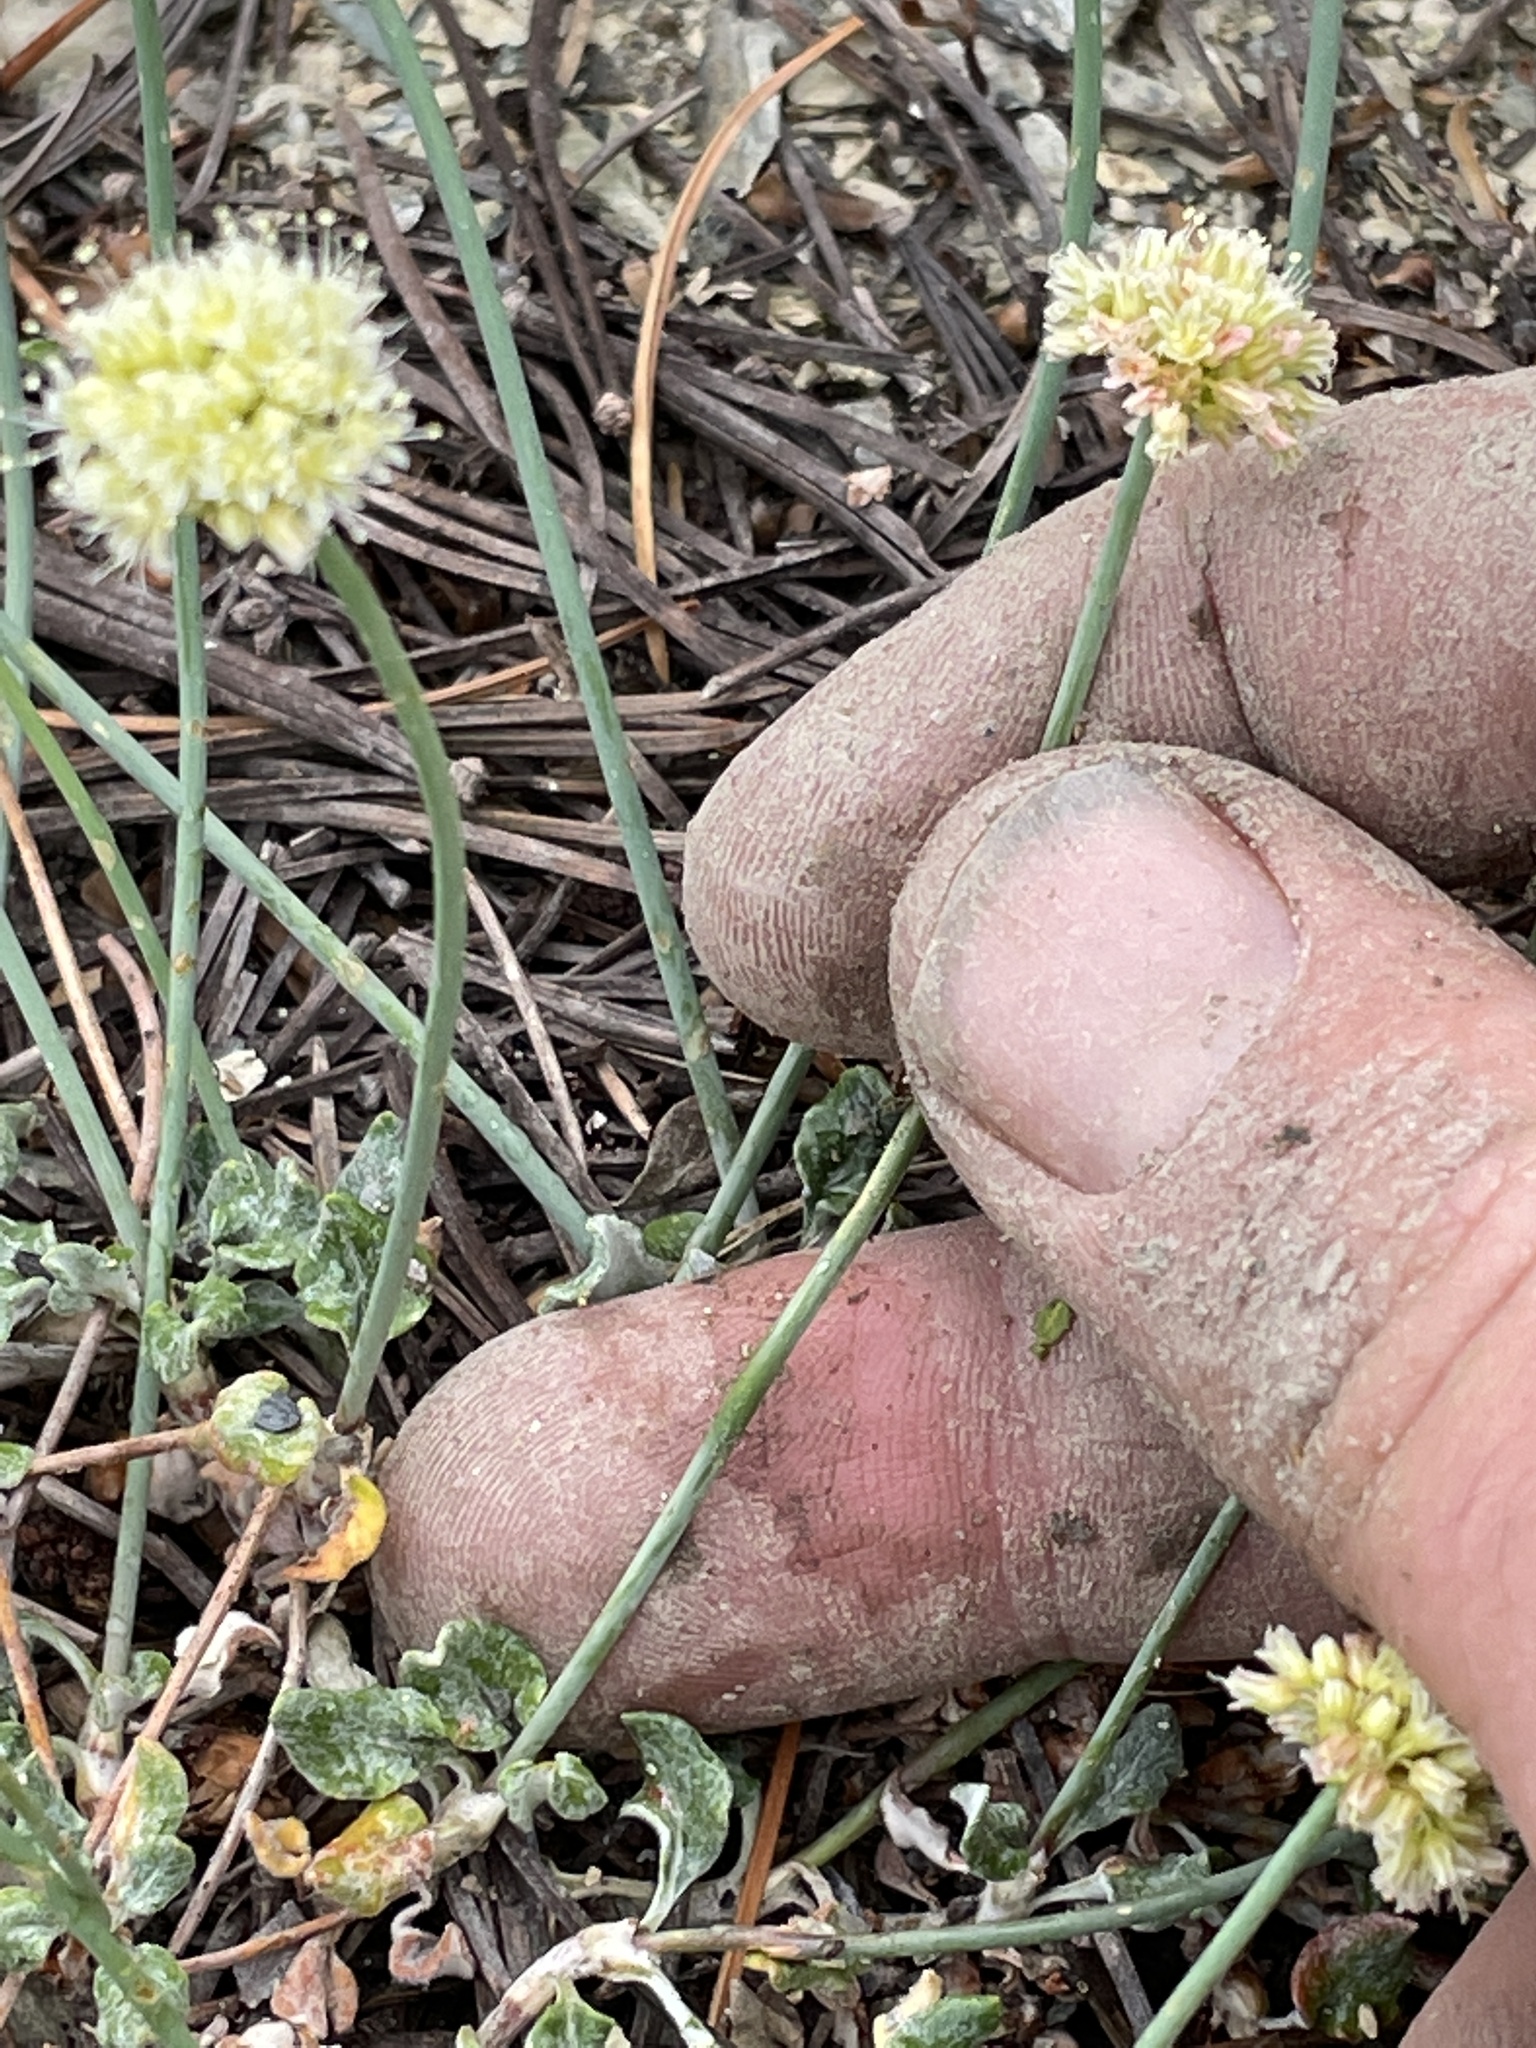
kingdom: Plantae
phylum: Tracheophyta
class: Magnoliopsida
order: Caryophyllales
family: Polygonaceae
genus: Eriogonum
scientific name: Eriogonum brevicaule
